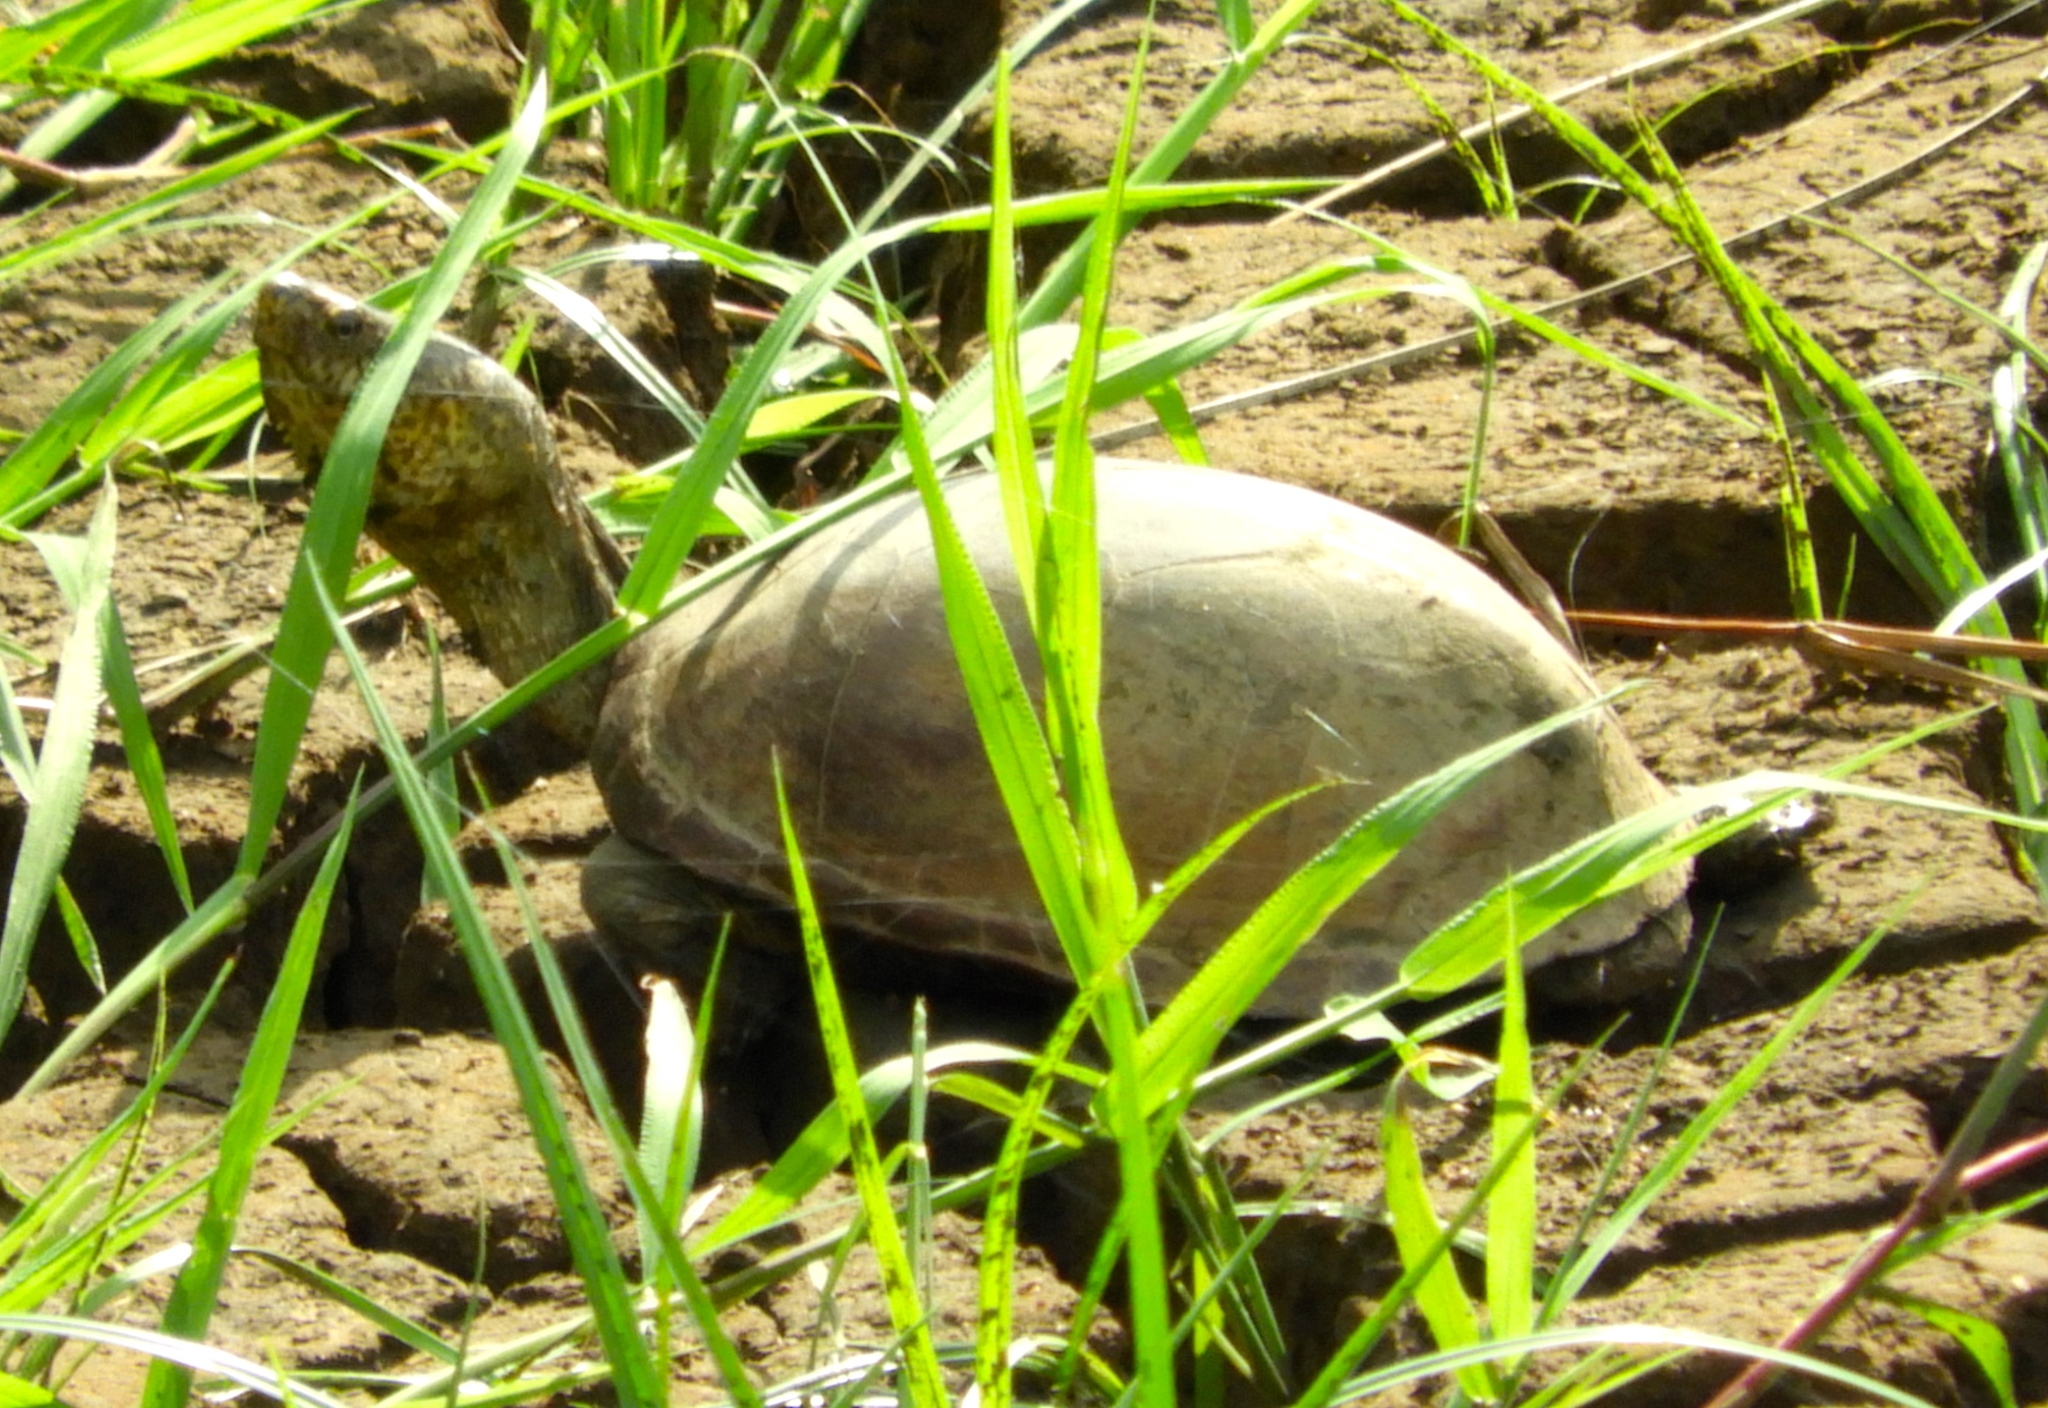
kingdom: Animalia
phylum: Chordata
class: Testudines
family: Kinosternidae
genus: Kinosternon
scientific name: Kinosternon integrum
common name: Mexican mud turtle
